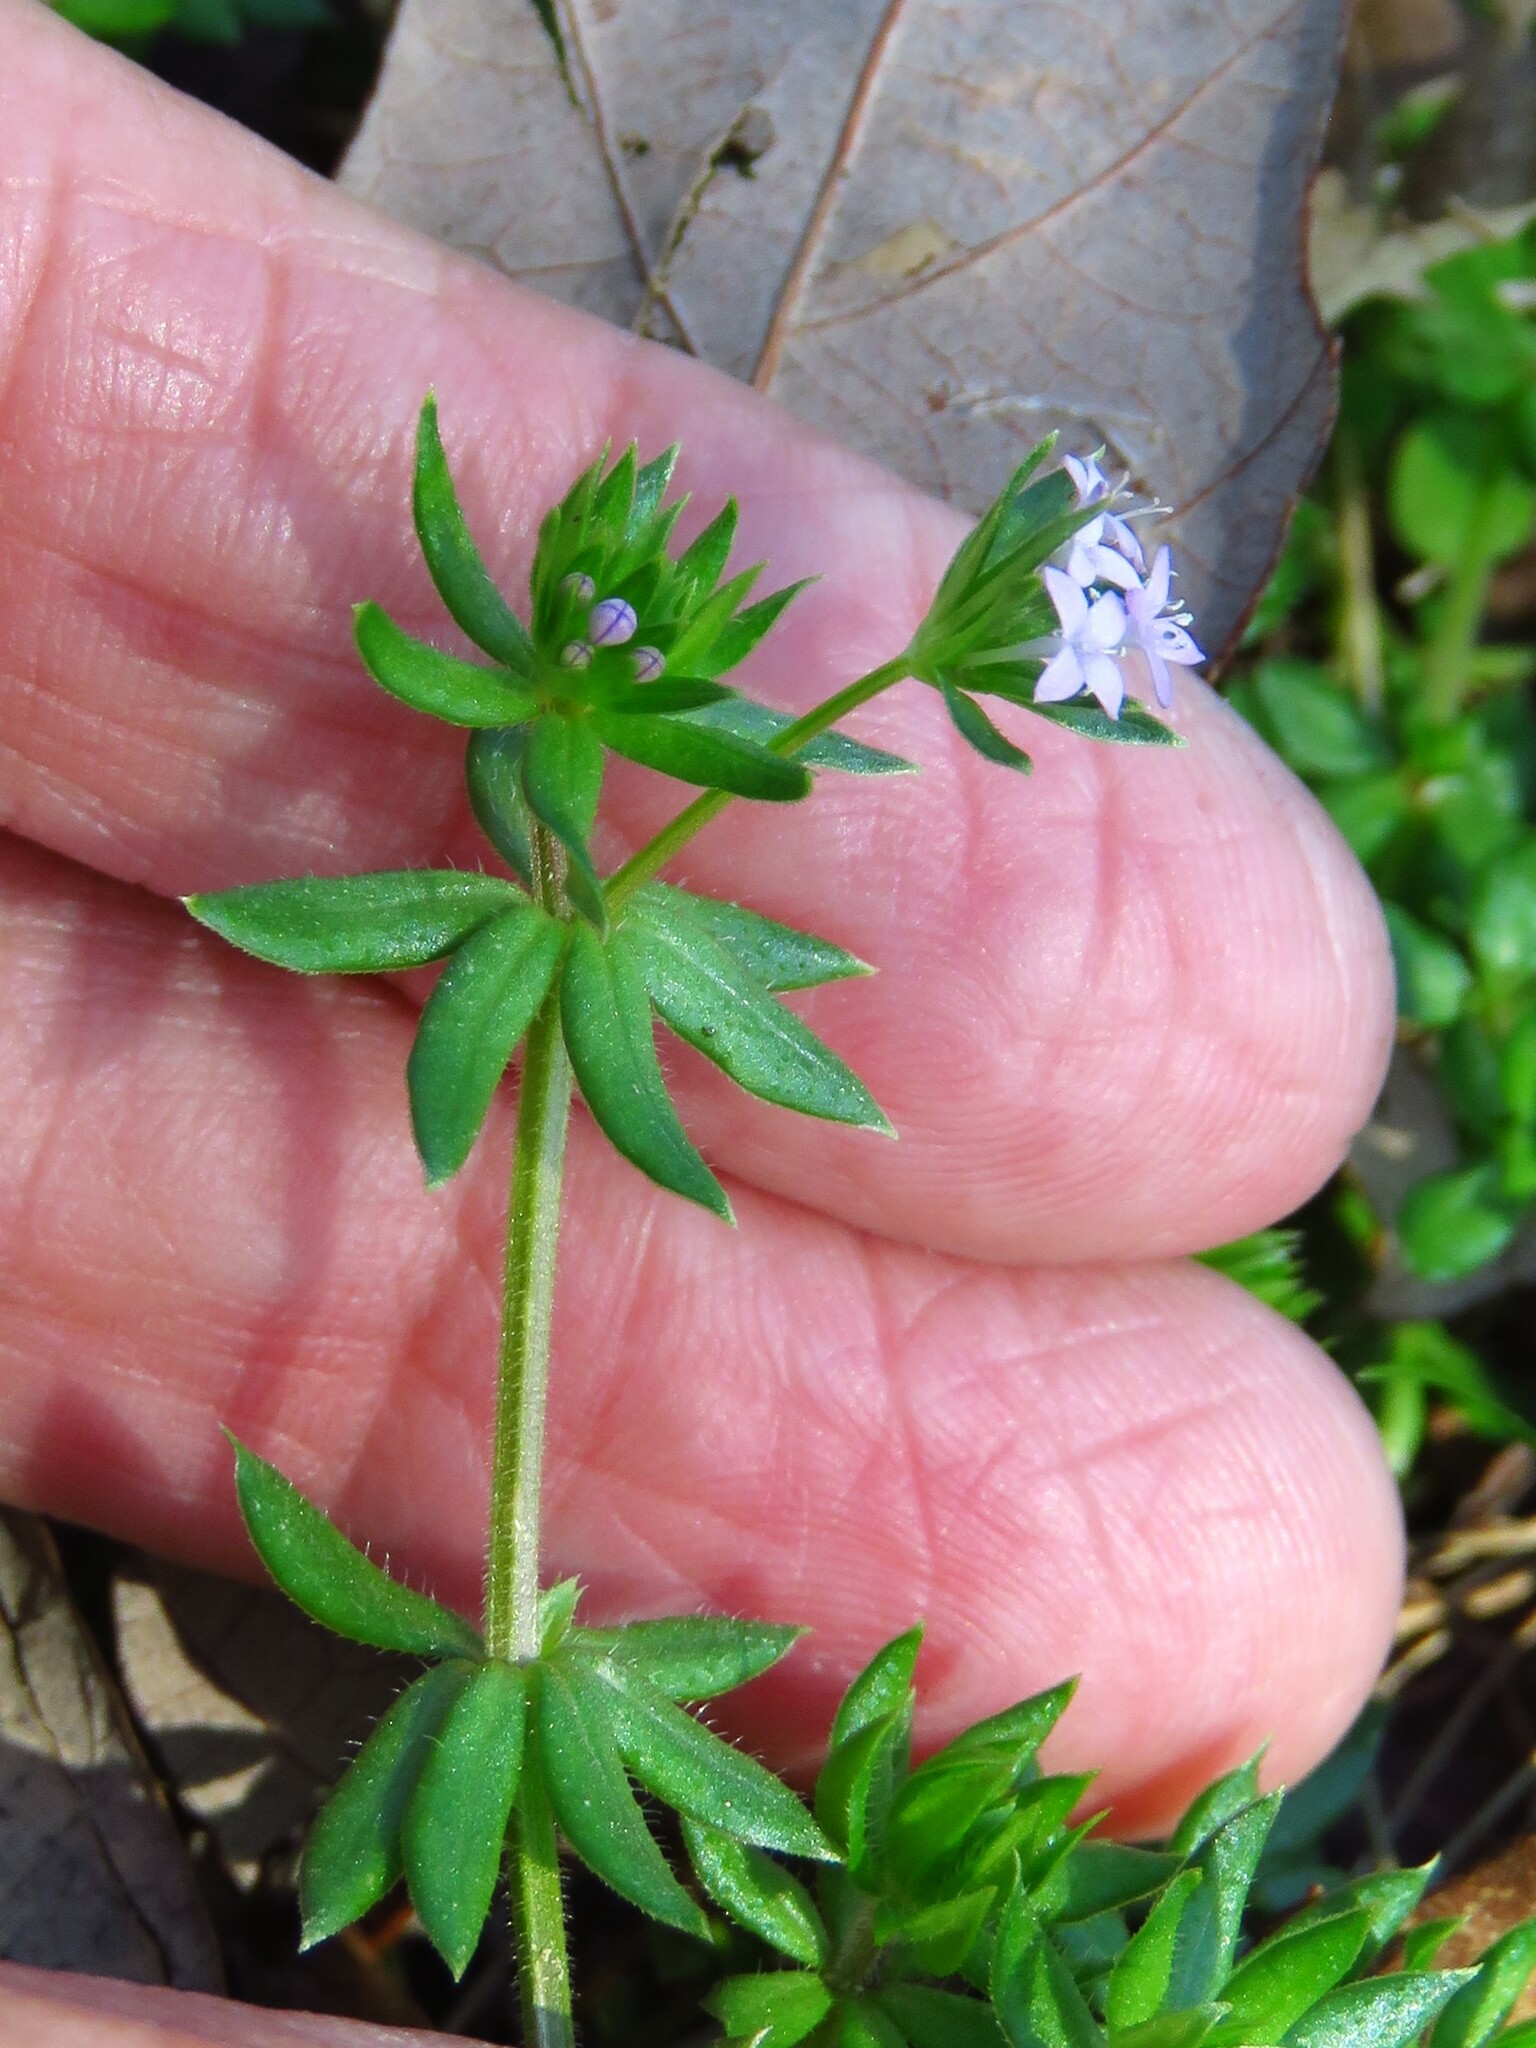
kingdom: Plantae
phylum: Tracheophyta
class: Magnoliopsida
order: Gentianales
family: Rubiaceae
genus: Sherardia
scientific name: Sherardia arvensis
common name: Field madder
